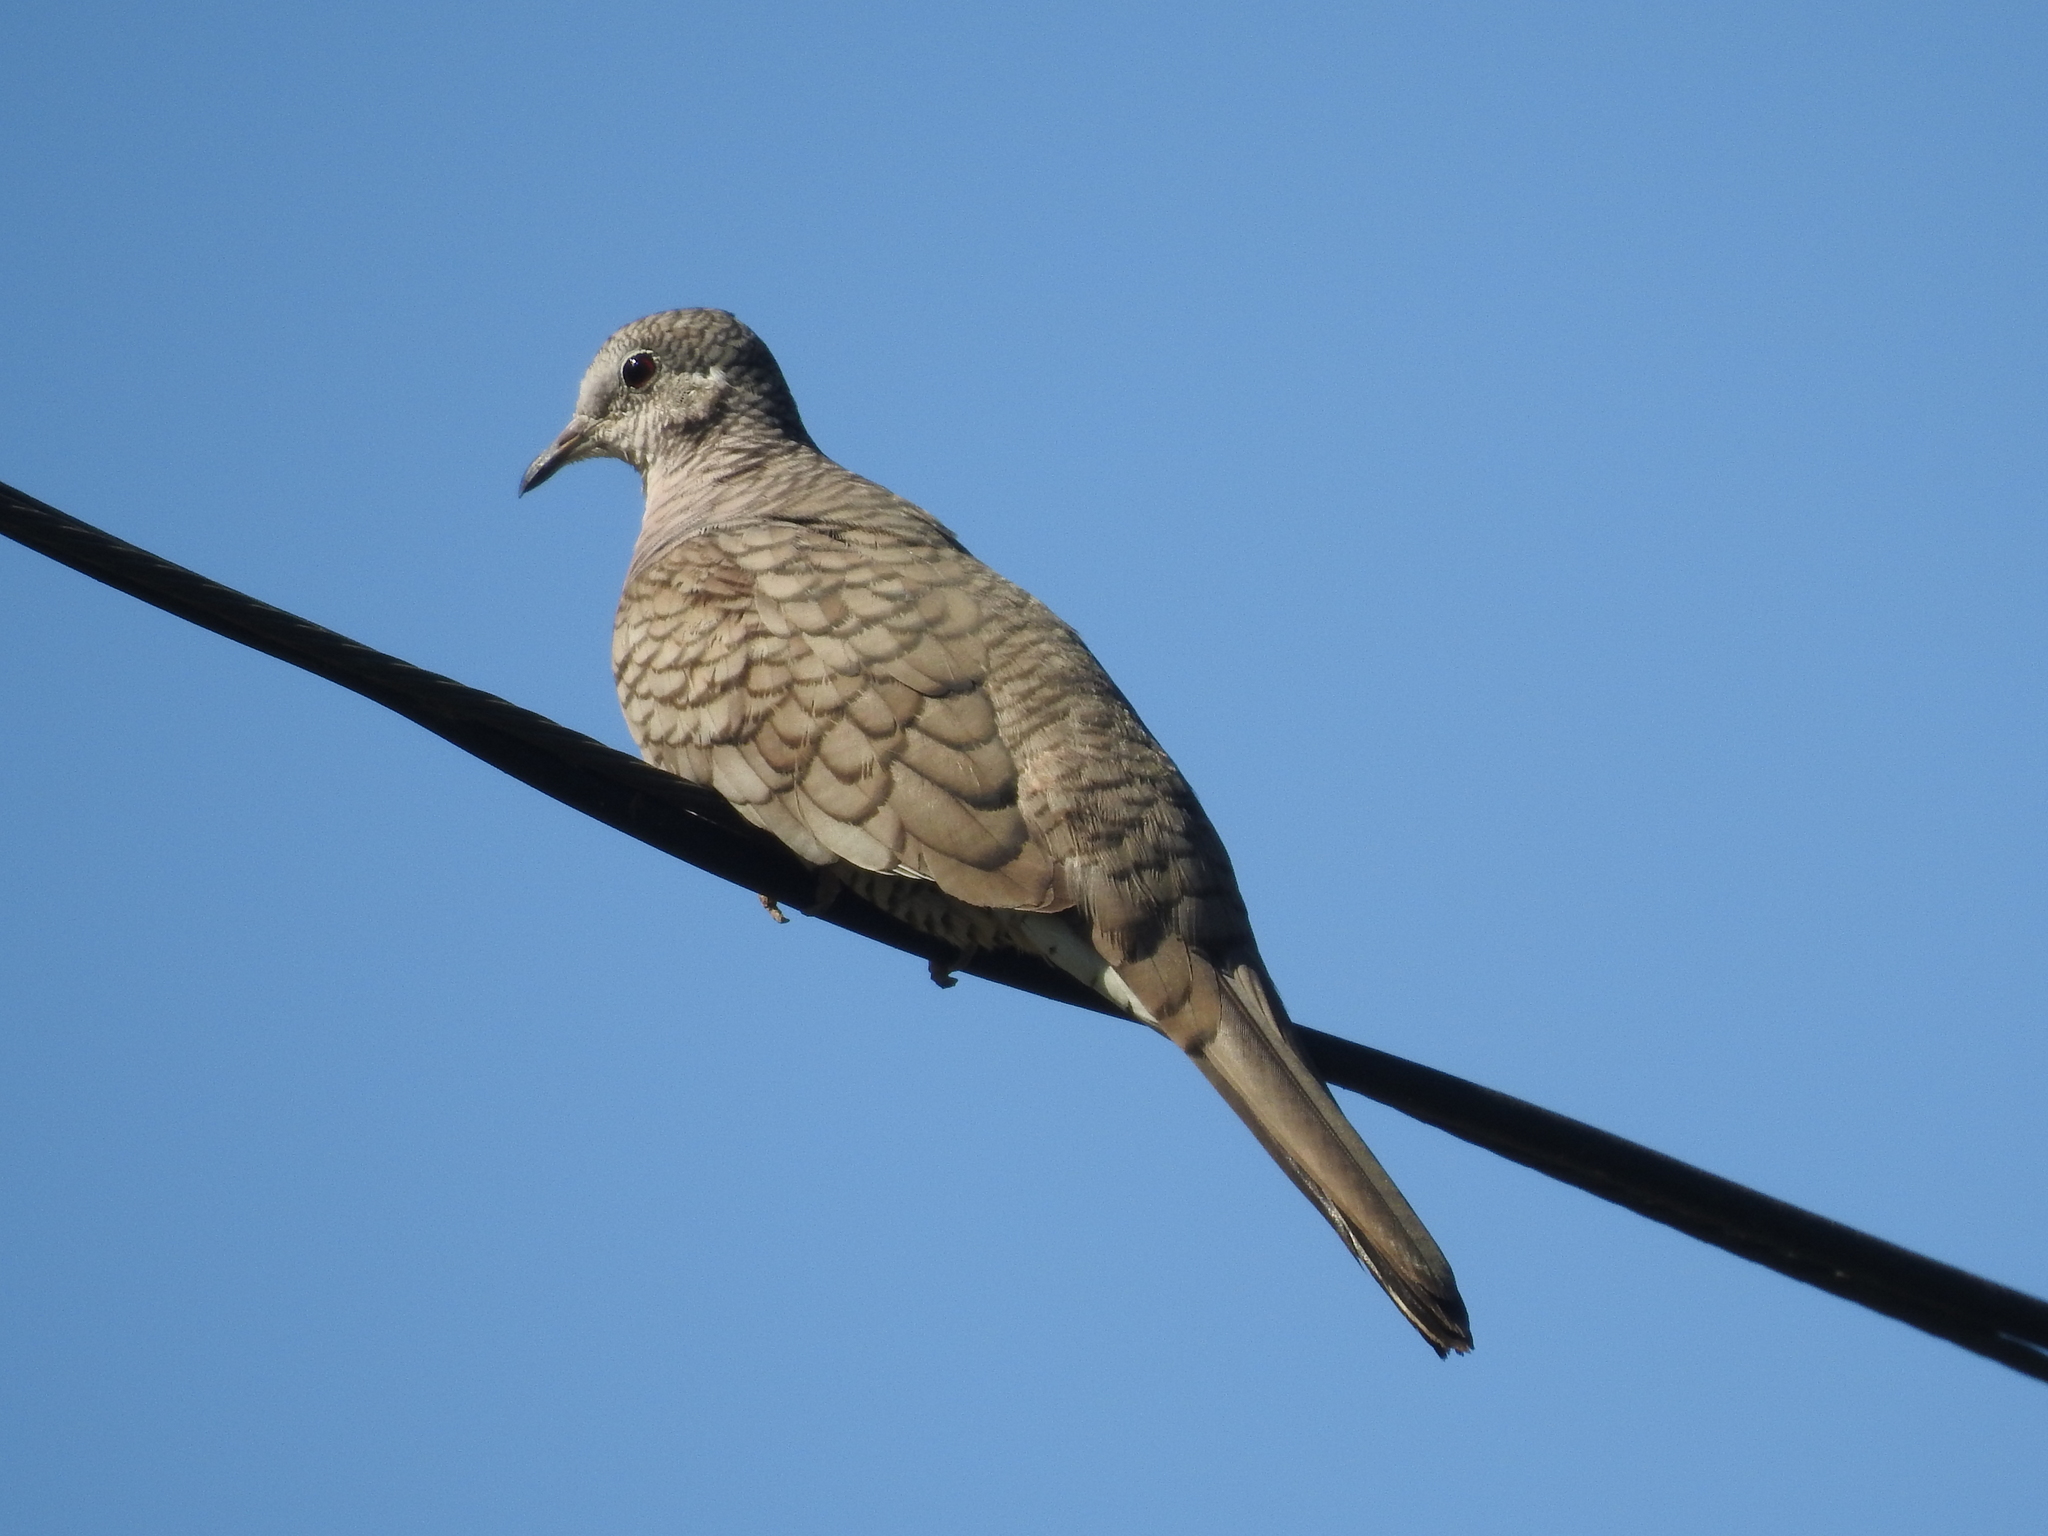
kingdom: Animalia
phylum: Chordata
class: Aves
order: Columbiformes
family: Columbidae
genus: Columbina
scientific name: Columbina inca
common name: Inca dove
